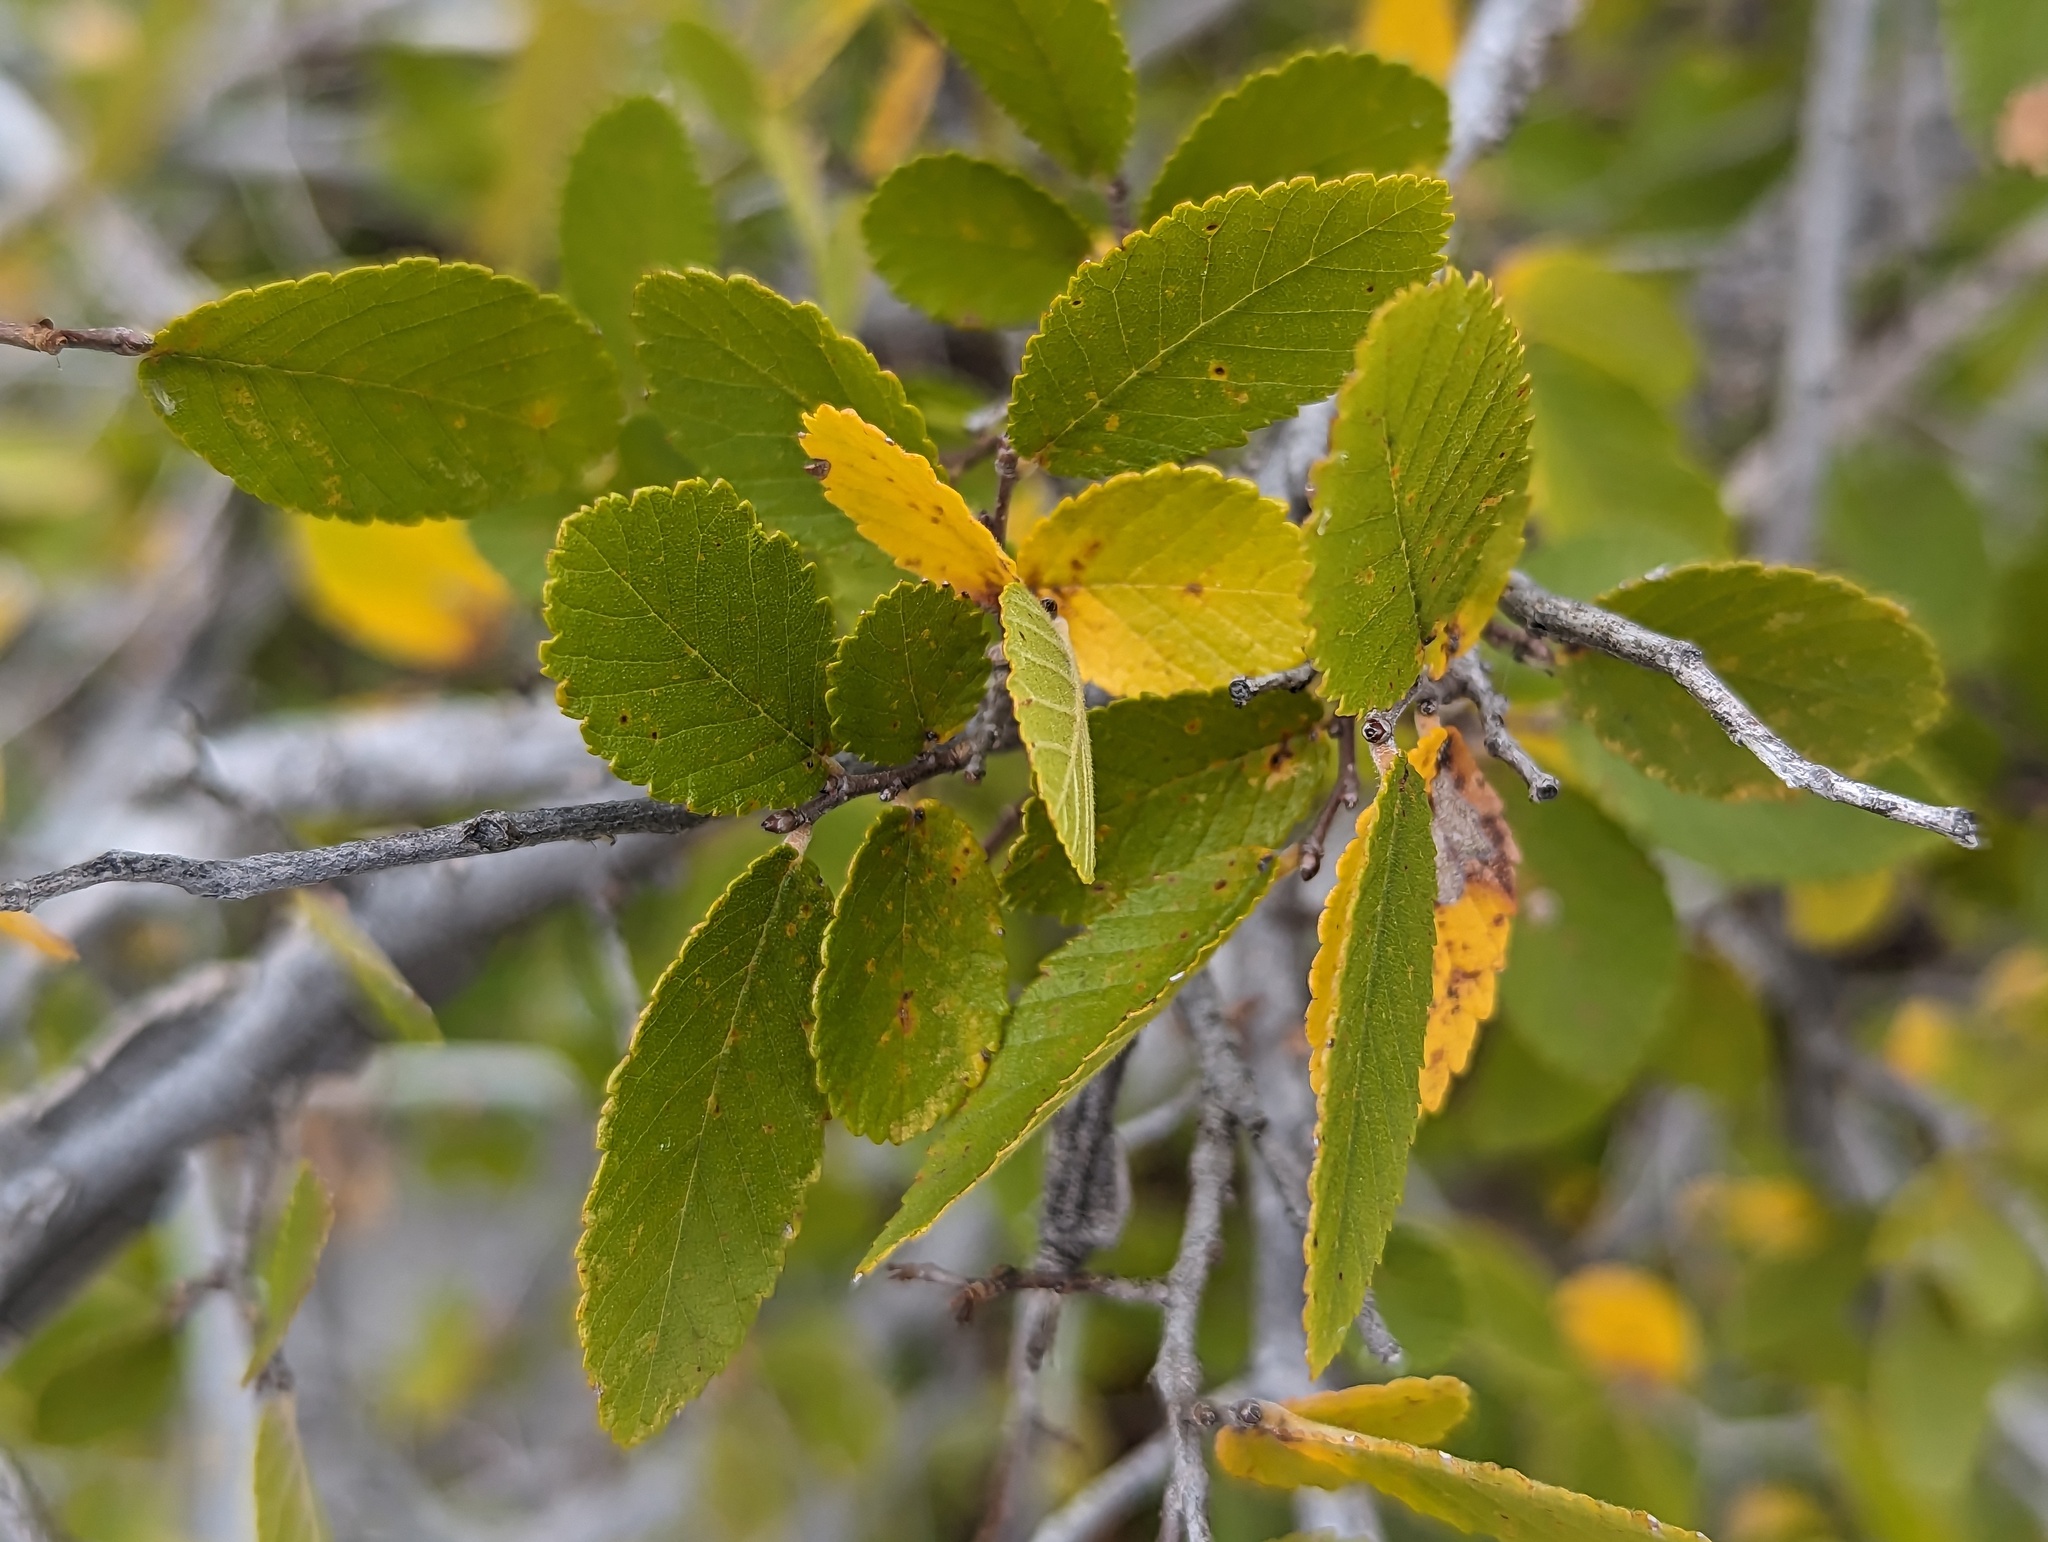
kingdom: Plantae
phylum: Tracheophyta
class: Magnoliopsida
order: Rosales
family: Ulmaceae
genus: Ulmus
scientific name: Ulmus crassifolia
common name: Basket elm
